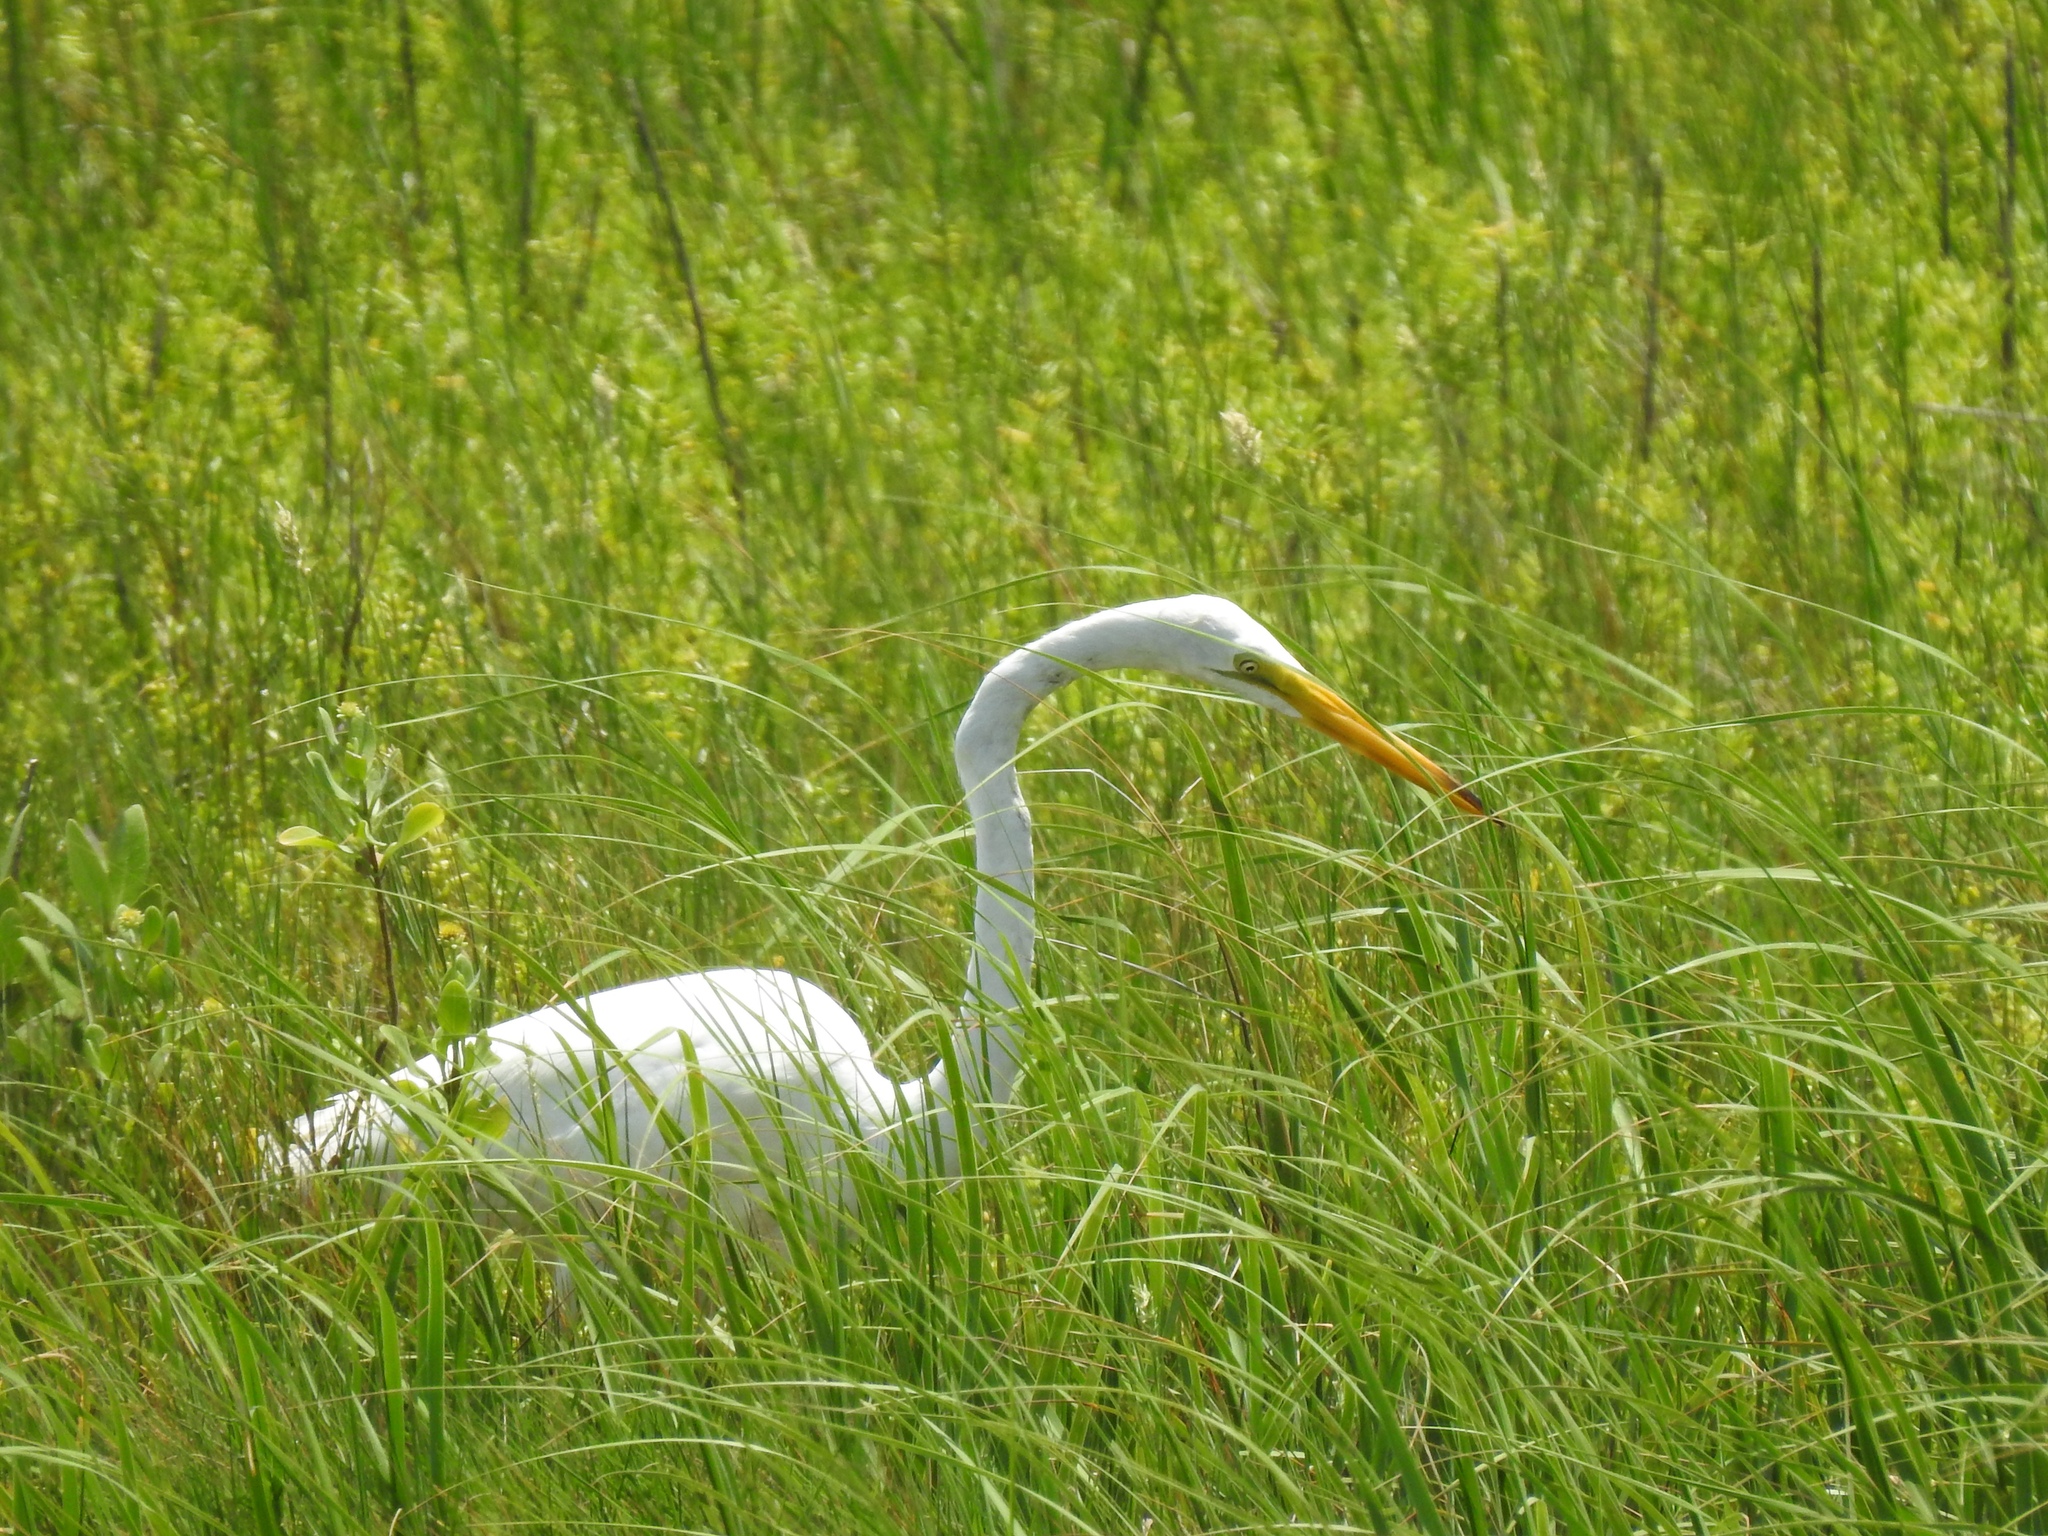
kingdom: Animalia
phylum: Chordata
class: Aves
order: Pelecaniformes
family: Ardeidae
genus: Ardea
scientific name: Ardea alba
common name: Great egret
